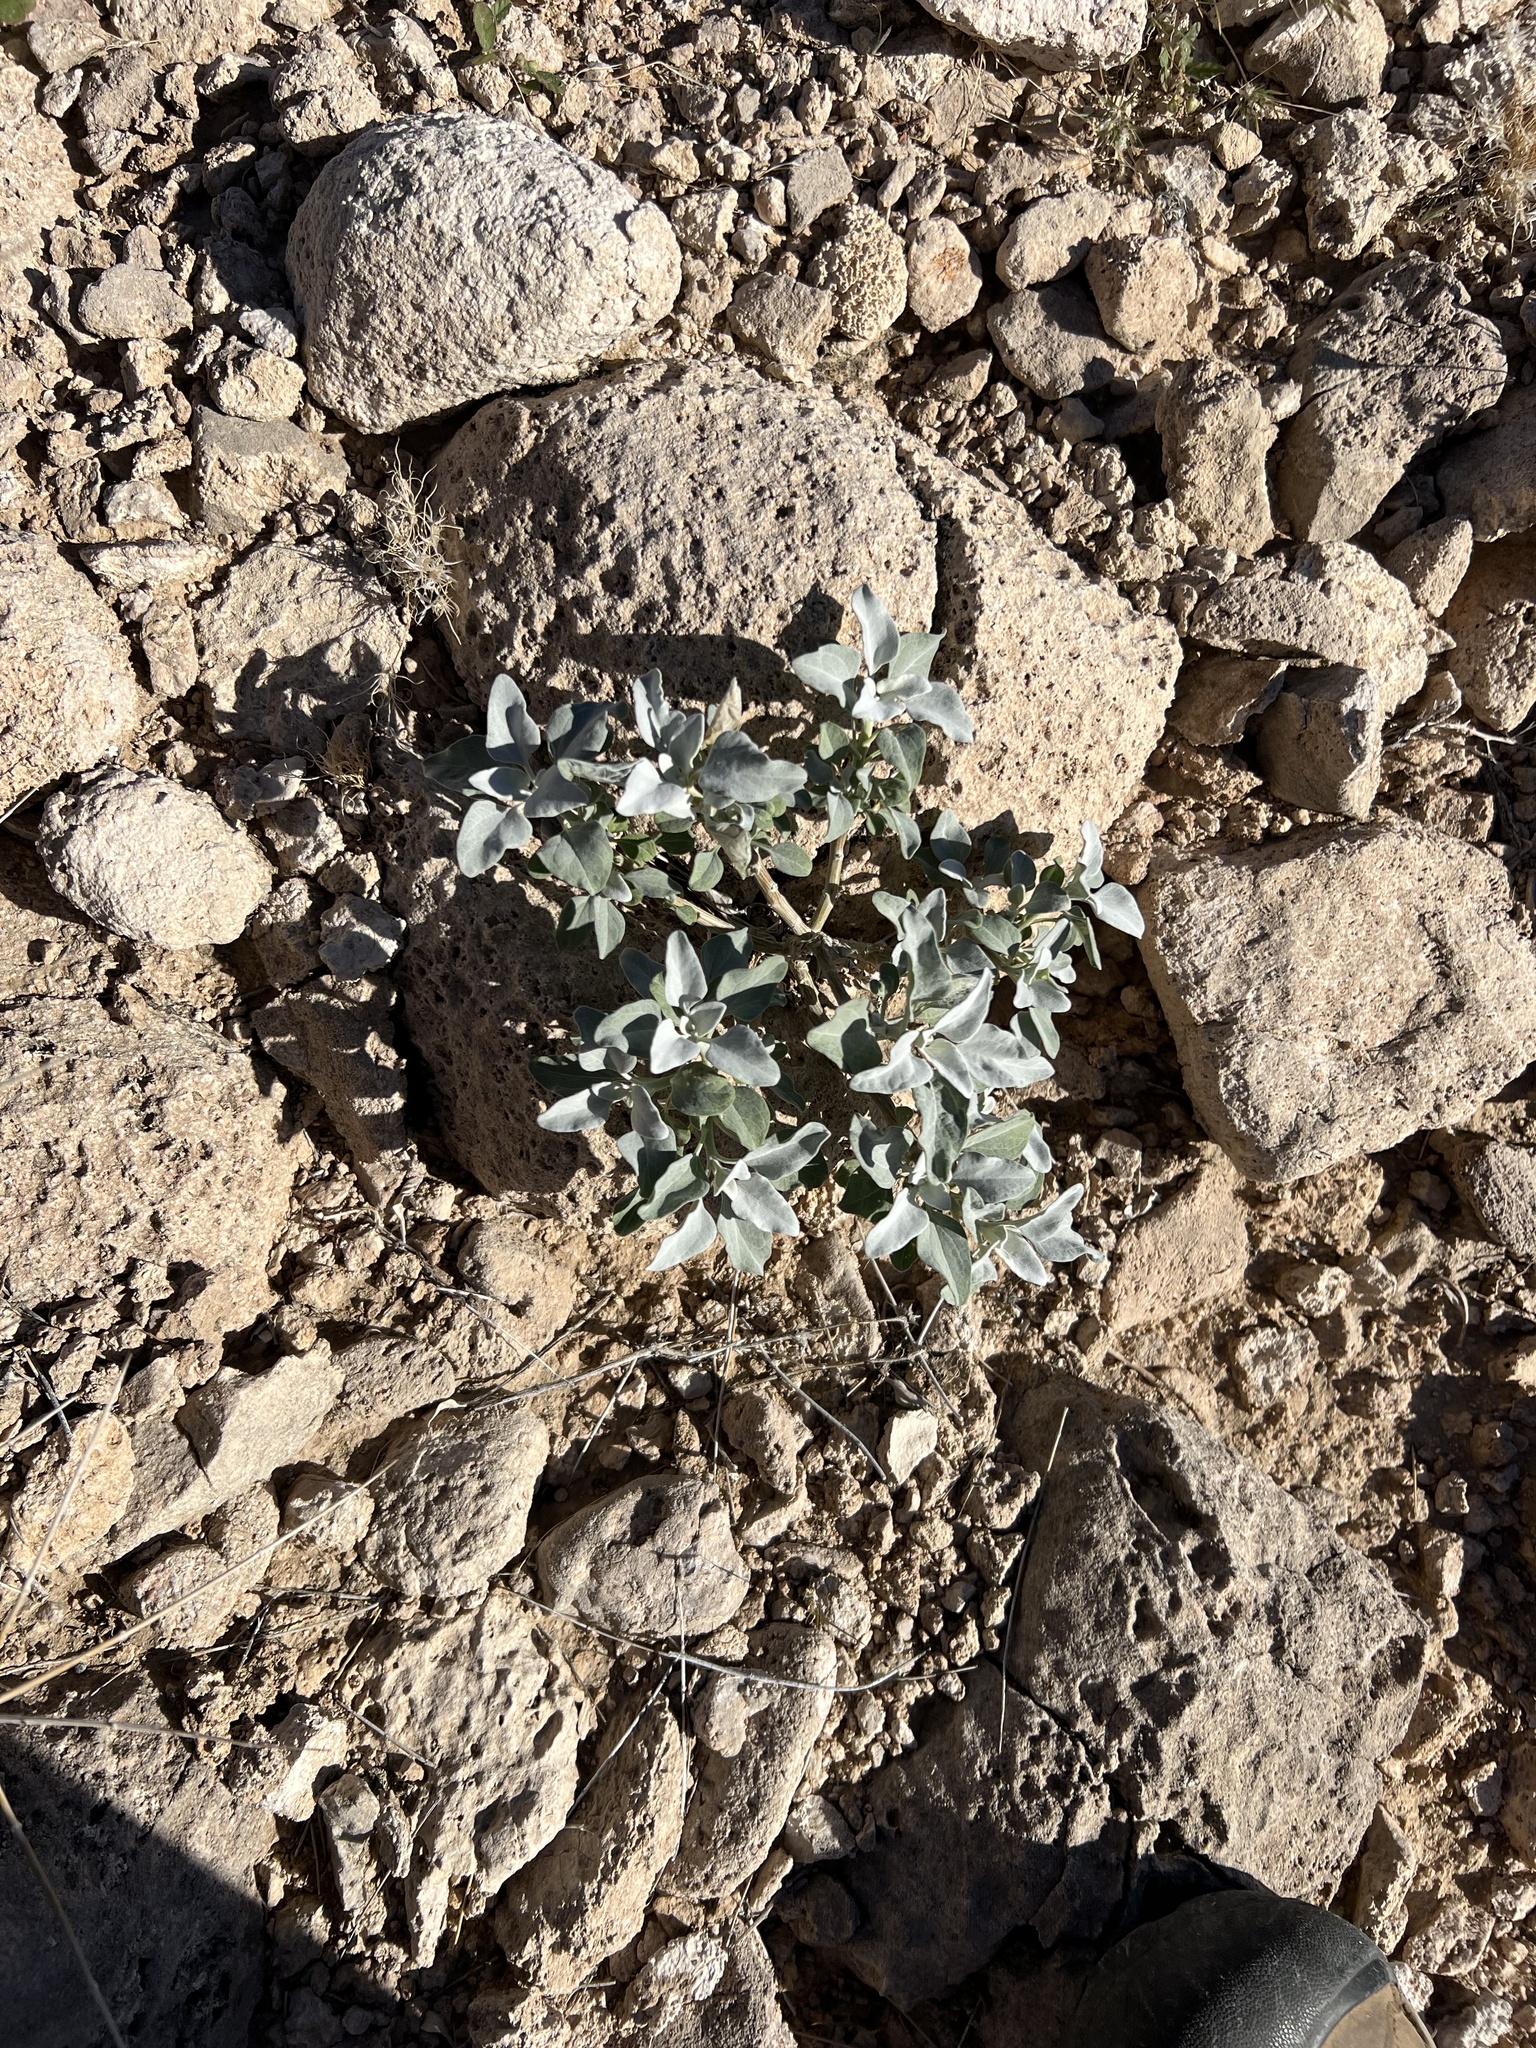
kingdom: Plantae
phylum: Tracheophyta
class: Magnoliopsida
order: Asterales
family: Asteraceae
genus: Encelia
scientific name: Encelia farinosa
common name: Brittlebush
